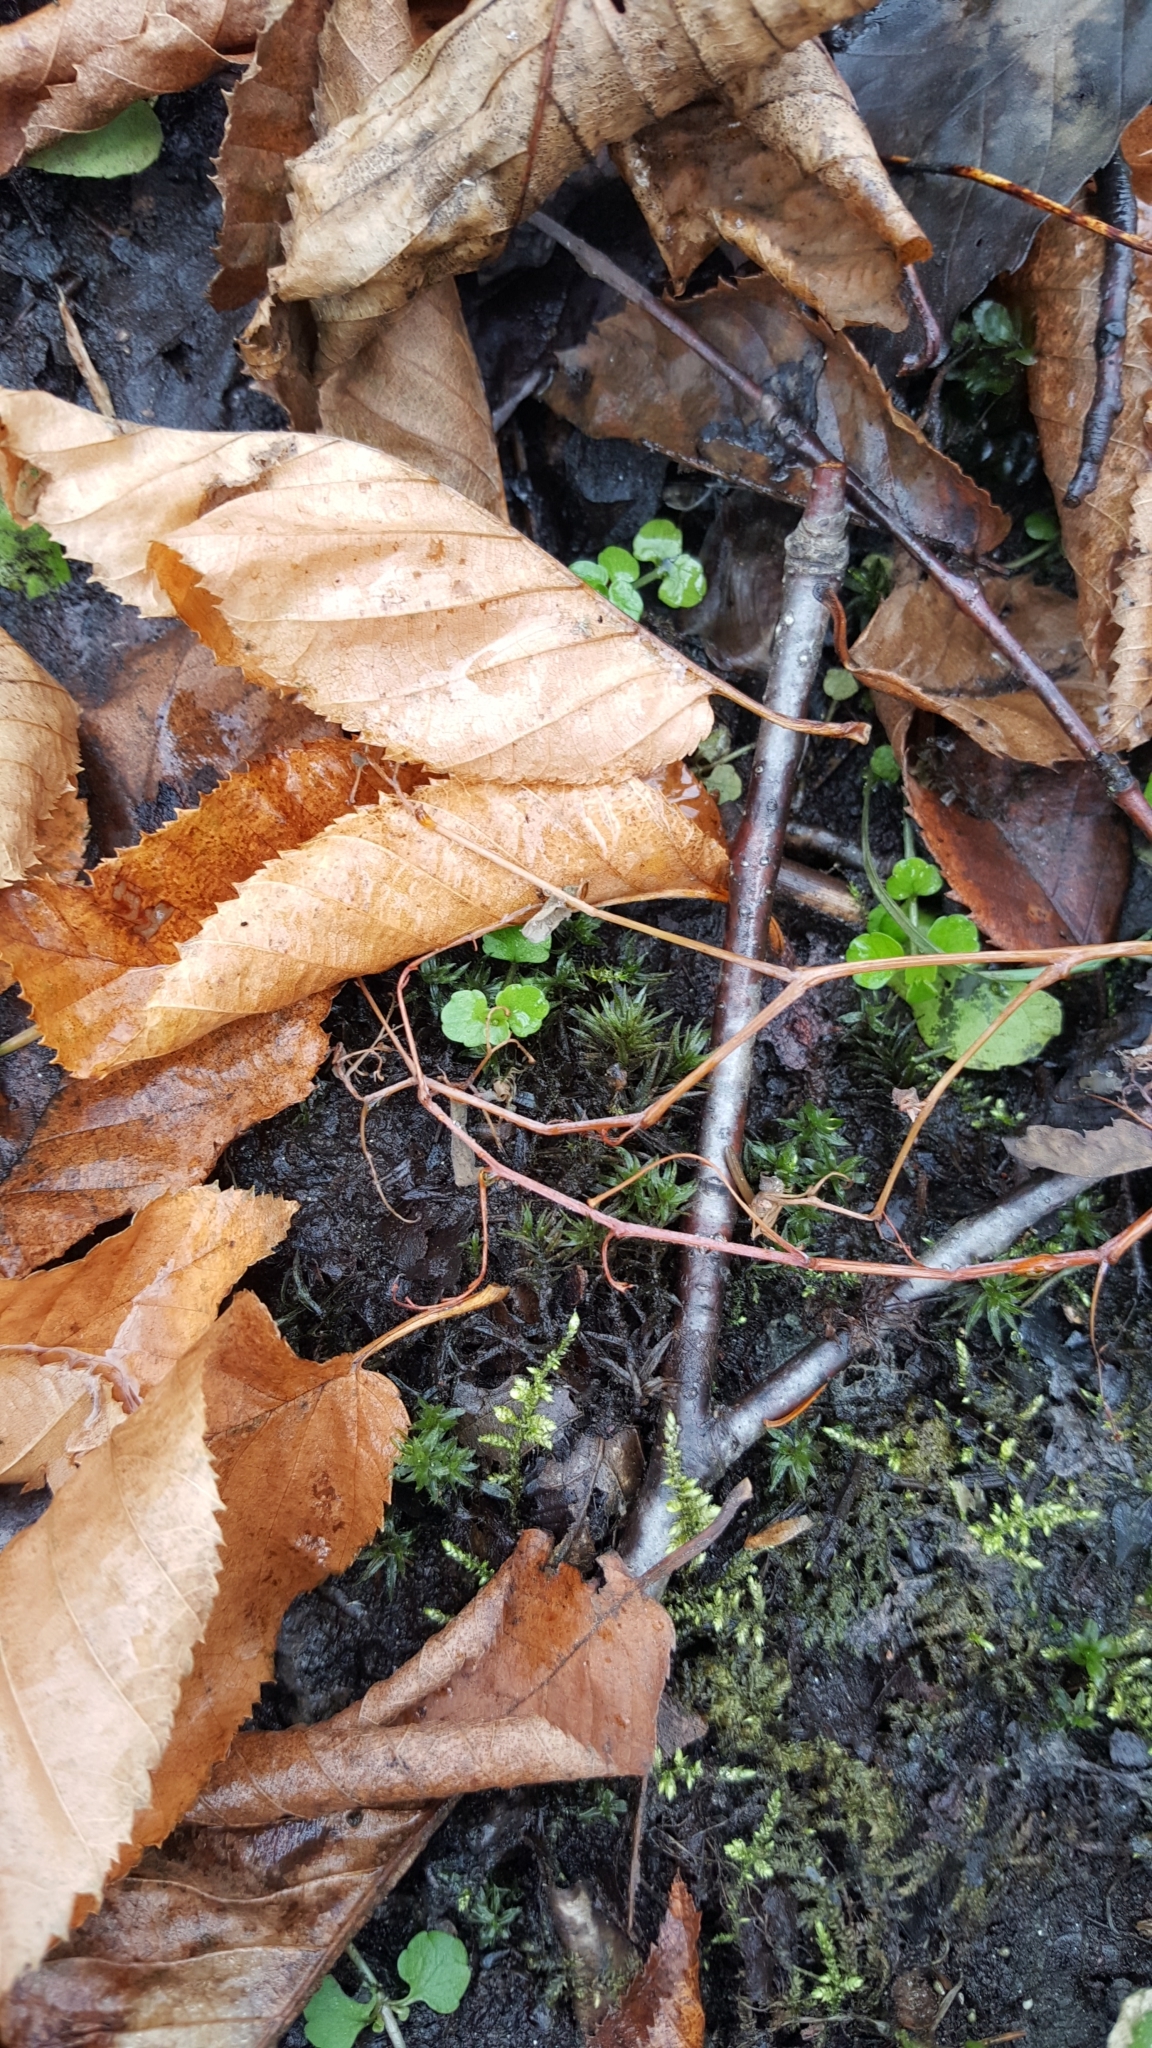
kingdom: Plantae
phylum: Tracheophyta
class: Magnoliopsida
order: Saxifragales
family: Saxifragaceae
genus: Chrysosplenium
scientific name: Chrysosplenium americanum
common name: American golden-saxifrage
